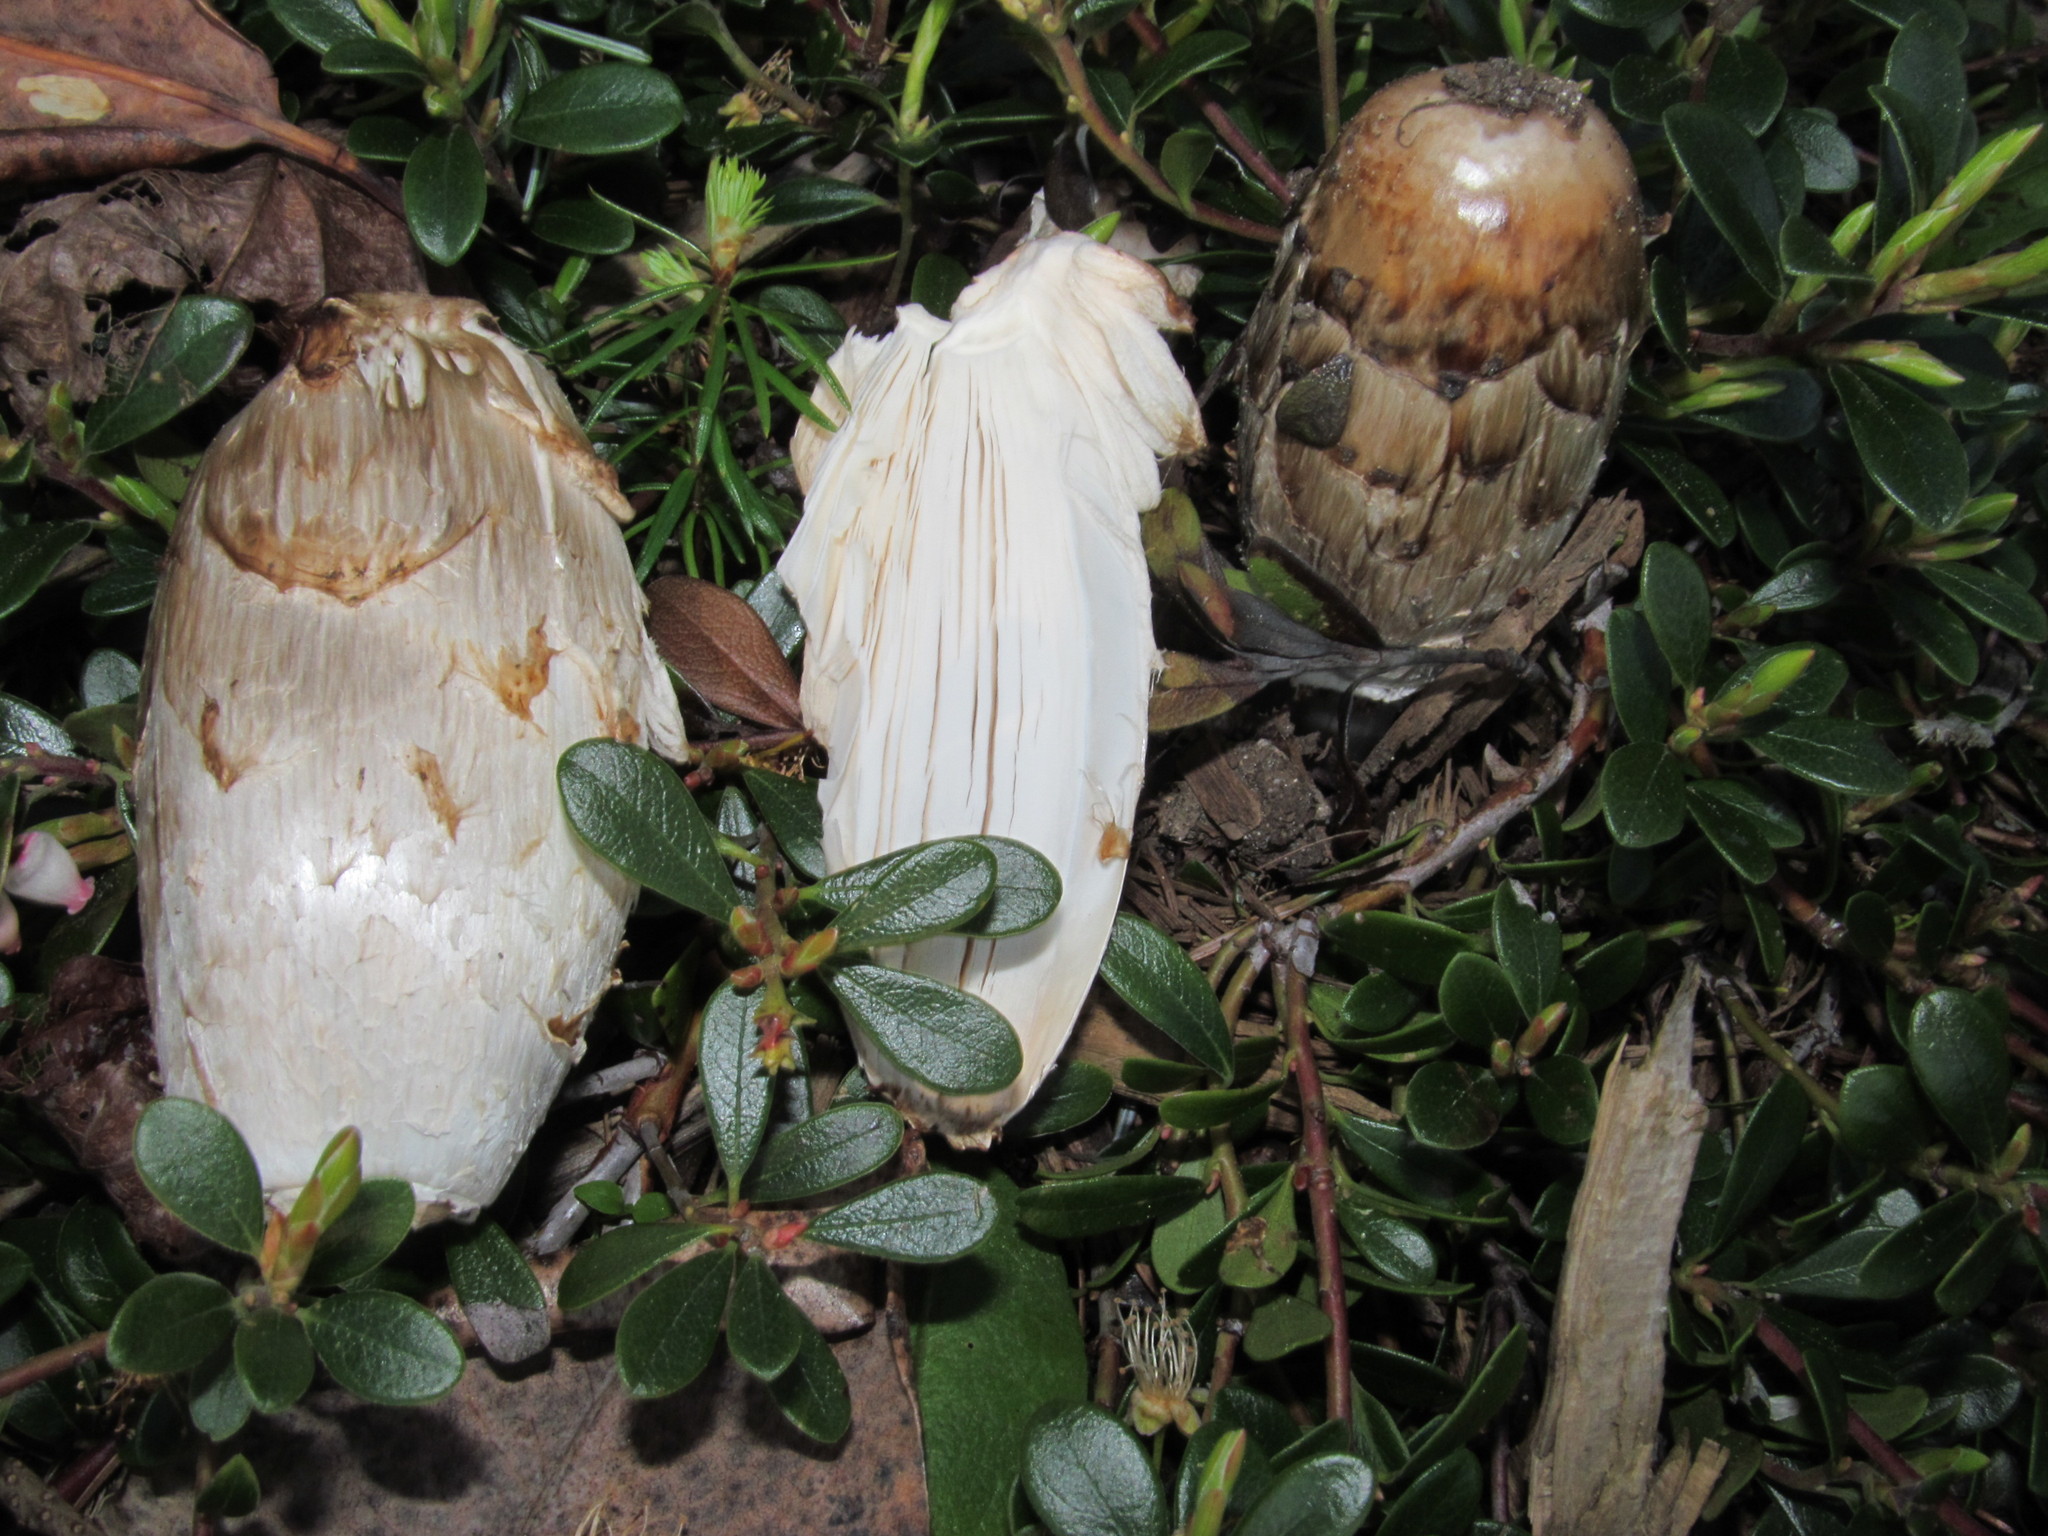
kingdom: Fungi
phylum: Basidiomycota
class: Agaricomycetes
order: Agaricales
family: Agaricaceae
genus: Coprinus
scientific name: Coprinus comatus
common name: Lawyer's wig
